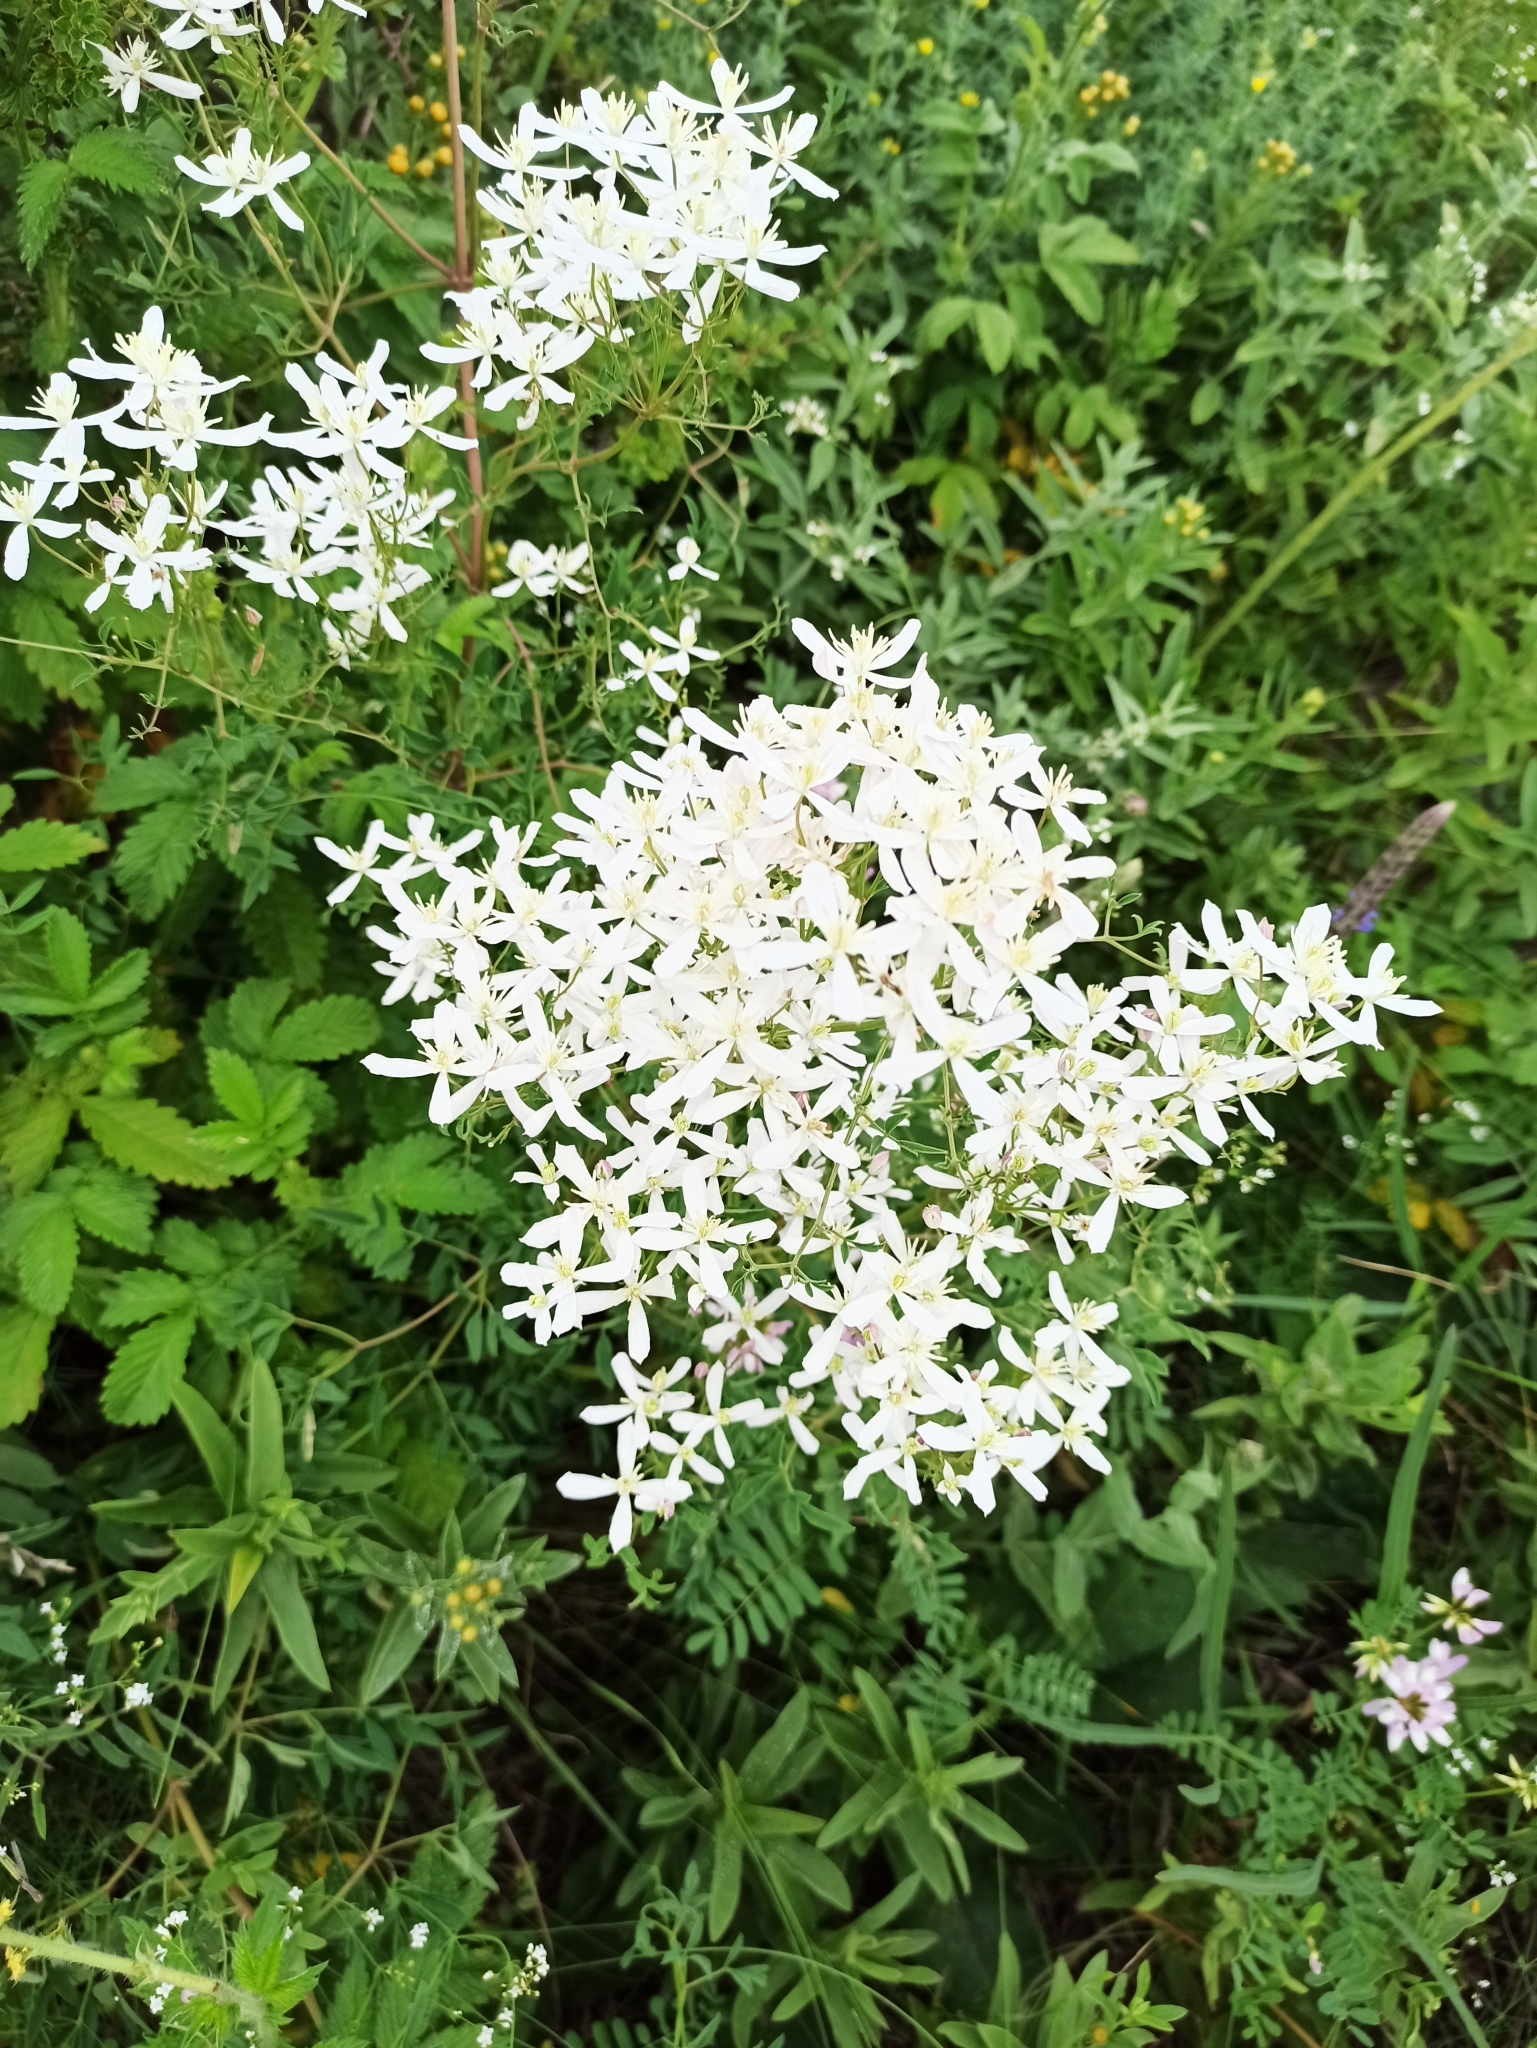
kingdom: Plantae
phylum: Tracheophyta
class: Magnoliopsida
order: Ranunculales
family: Ranunculaceae
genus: Clematis
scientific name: Clematis lathyrifolia
